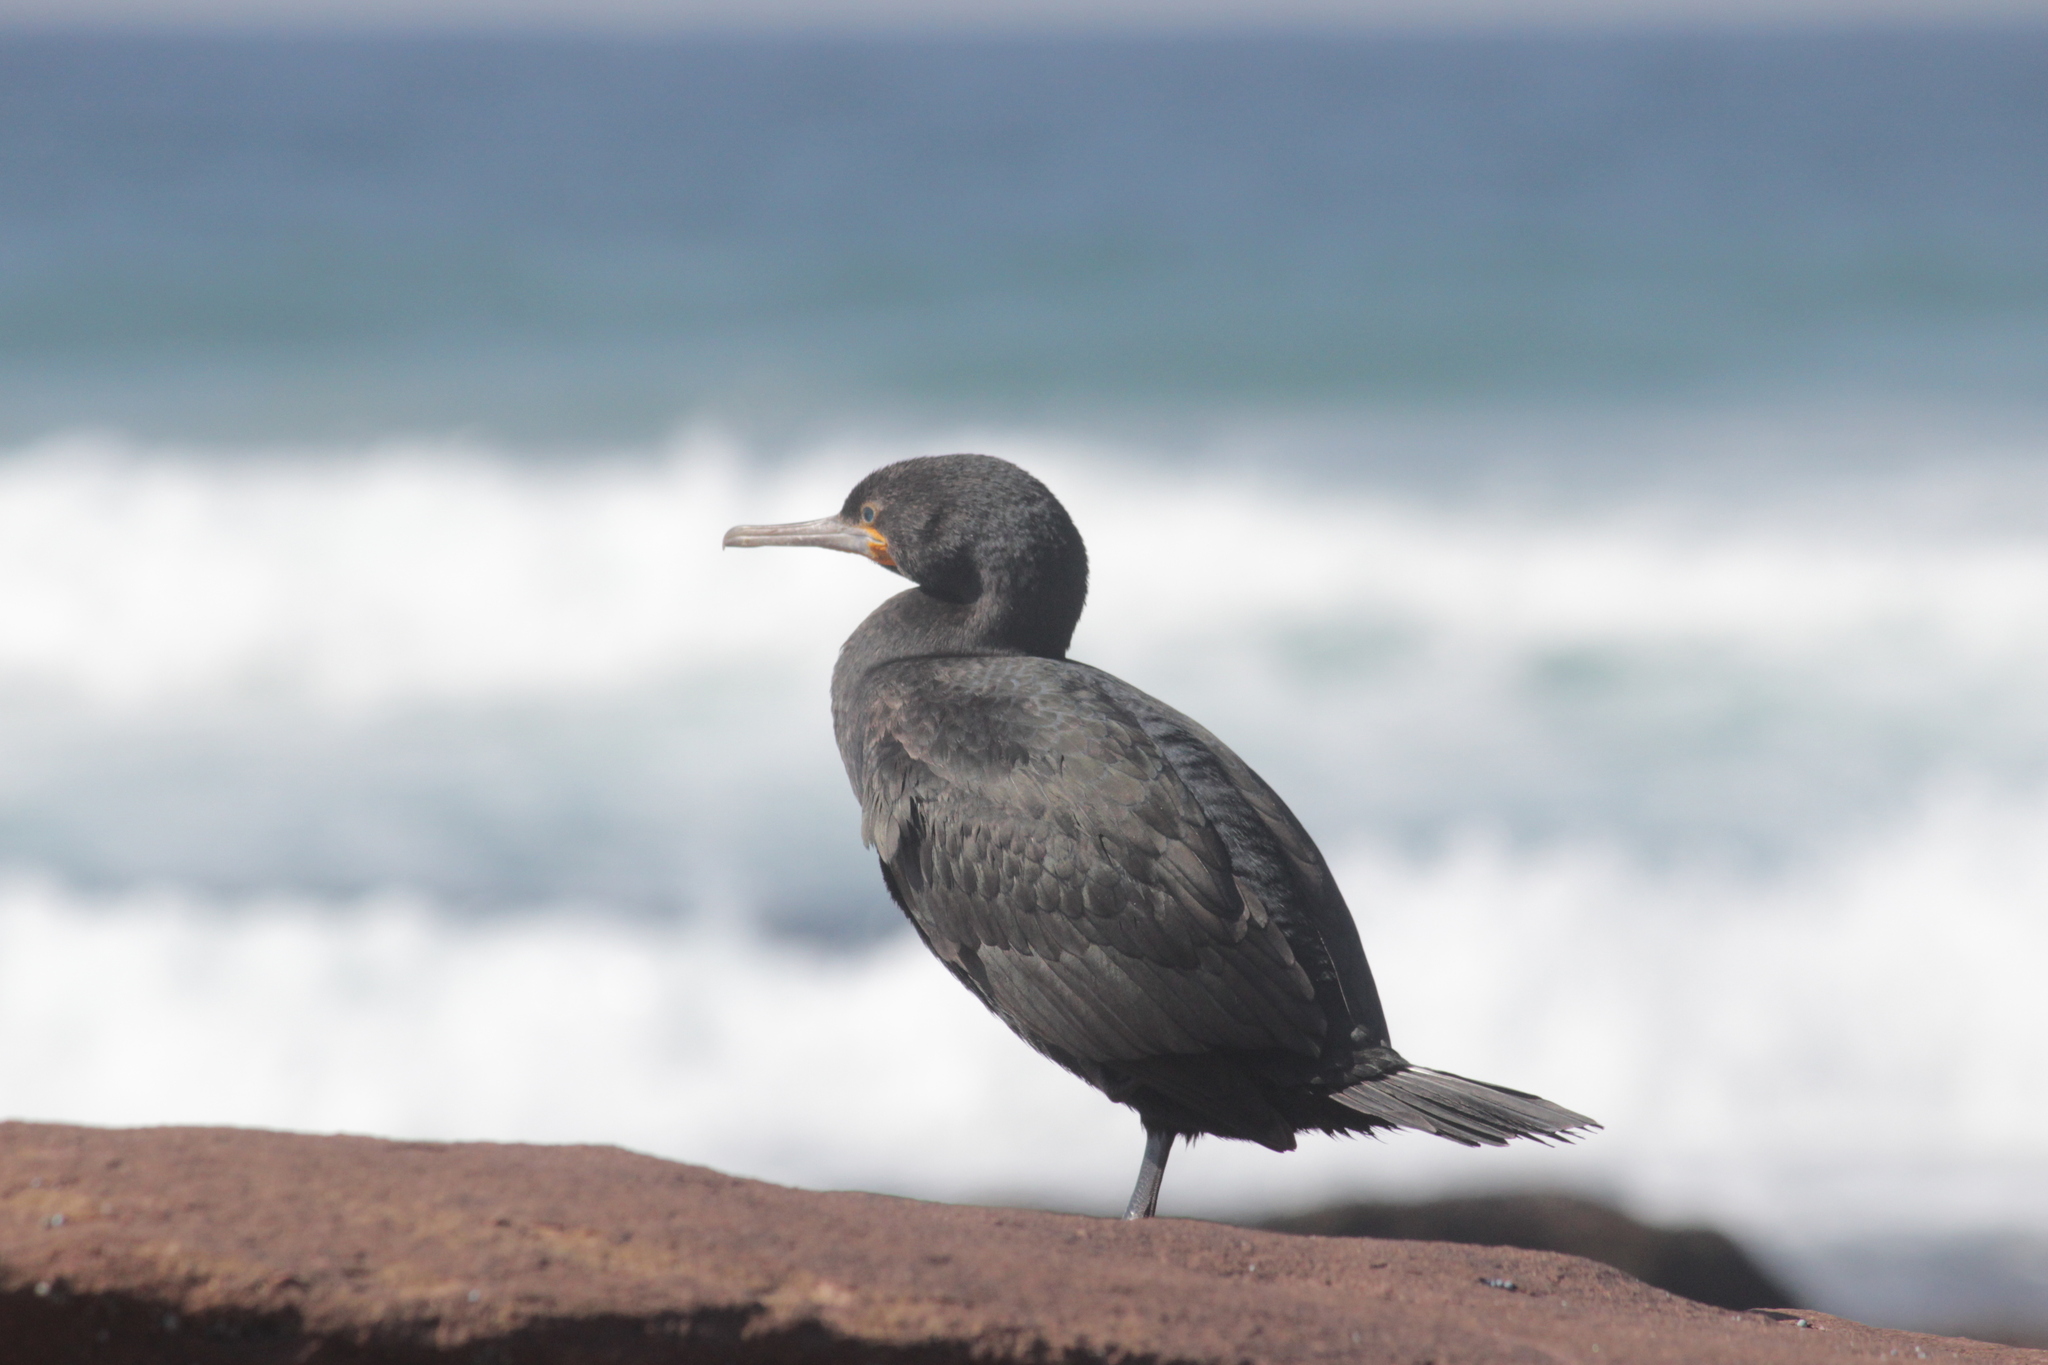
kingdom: Animalia
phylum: Chordata
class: Aves
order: Suliformes
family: Phalacrocoracidae
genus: Phalacrocorax
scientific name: Phalacrocorax capensis
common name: Cape cormorant
